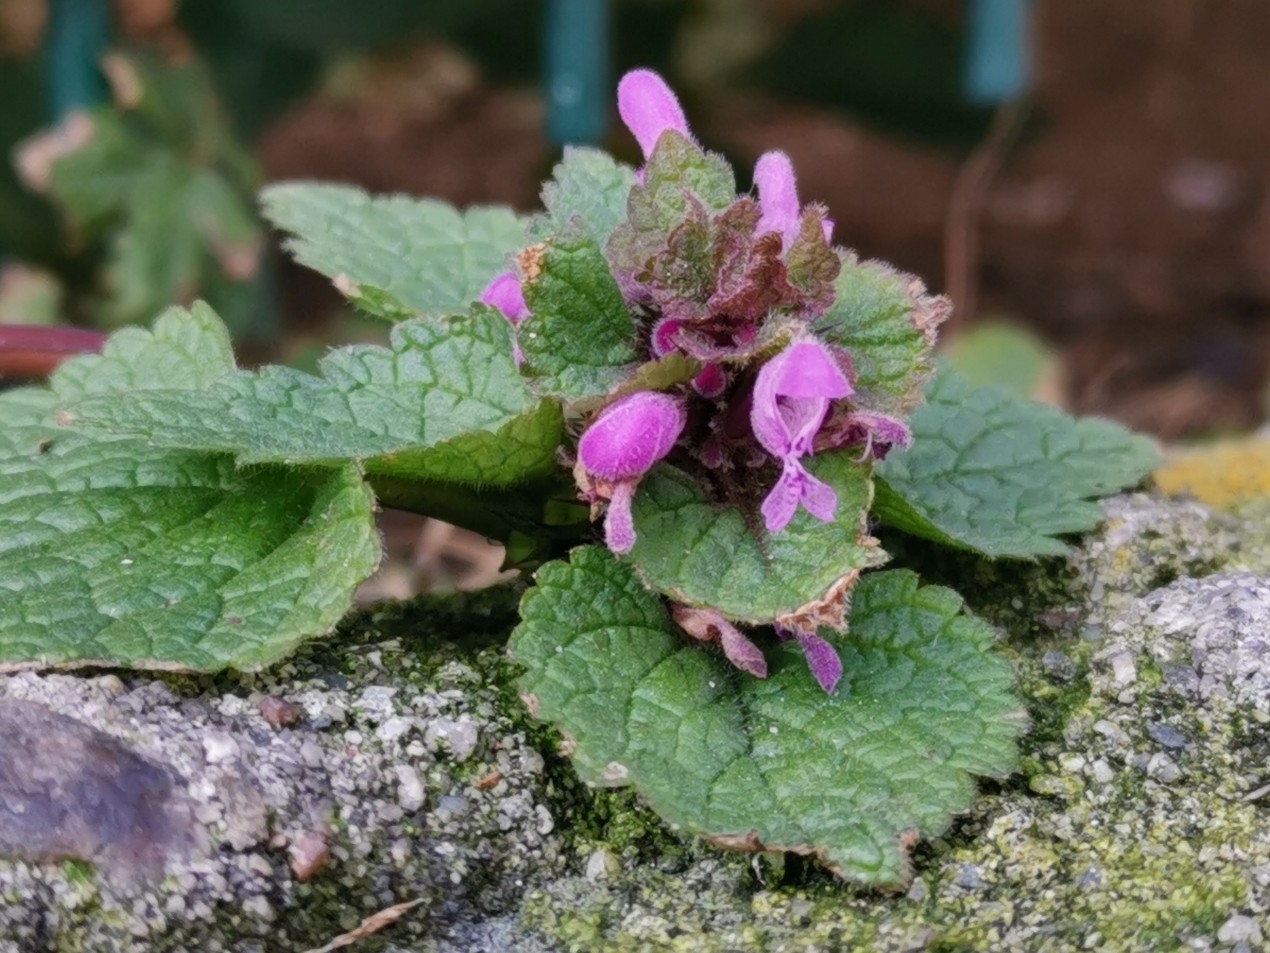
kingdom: Plantae
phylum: Tracheophyta
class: Magnoliopsida
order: Lamiales
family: Lamiaceae
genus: Lamium
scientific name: Lamium purpureum
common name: Red dead-nettle
